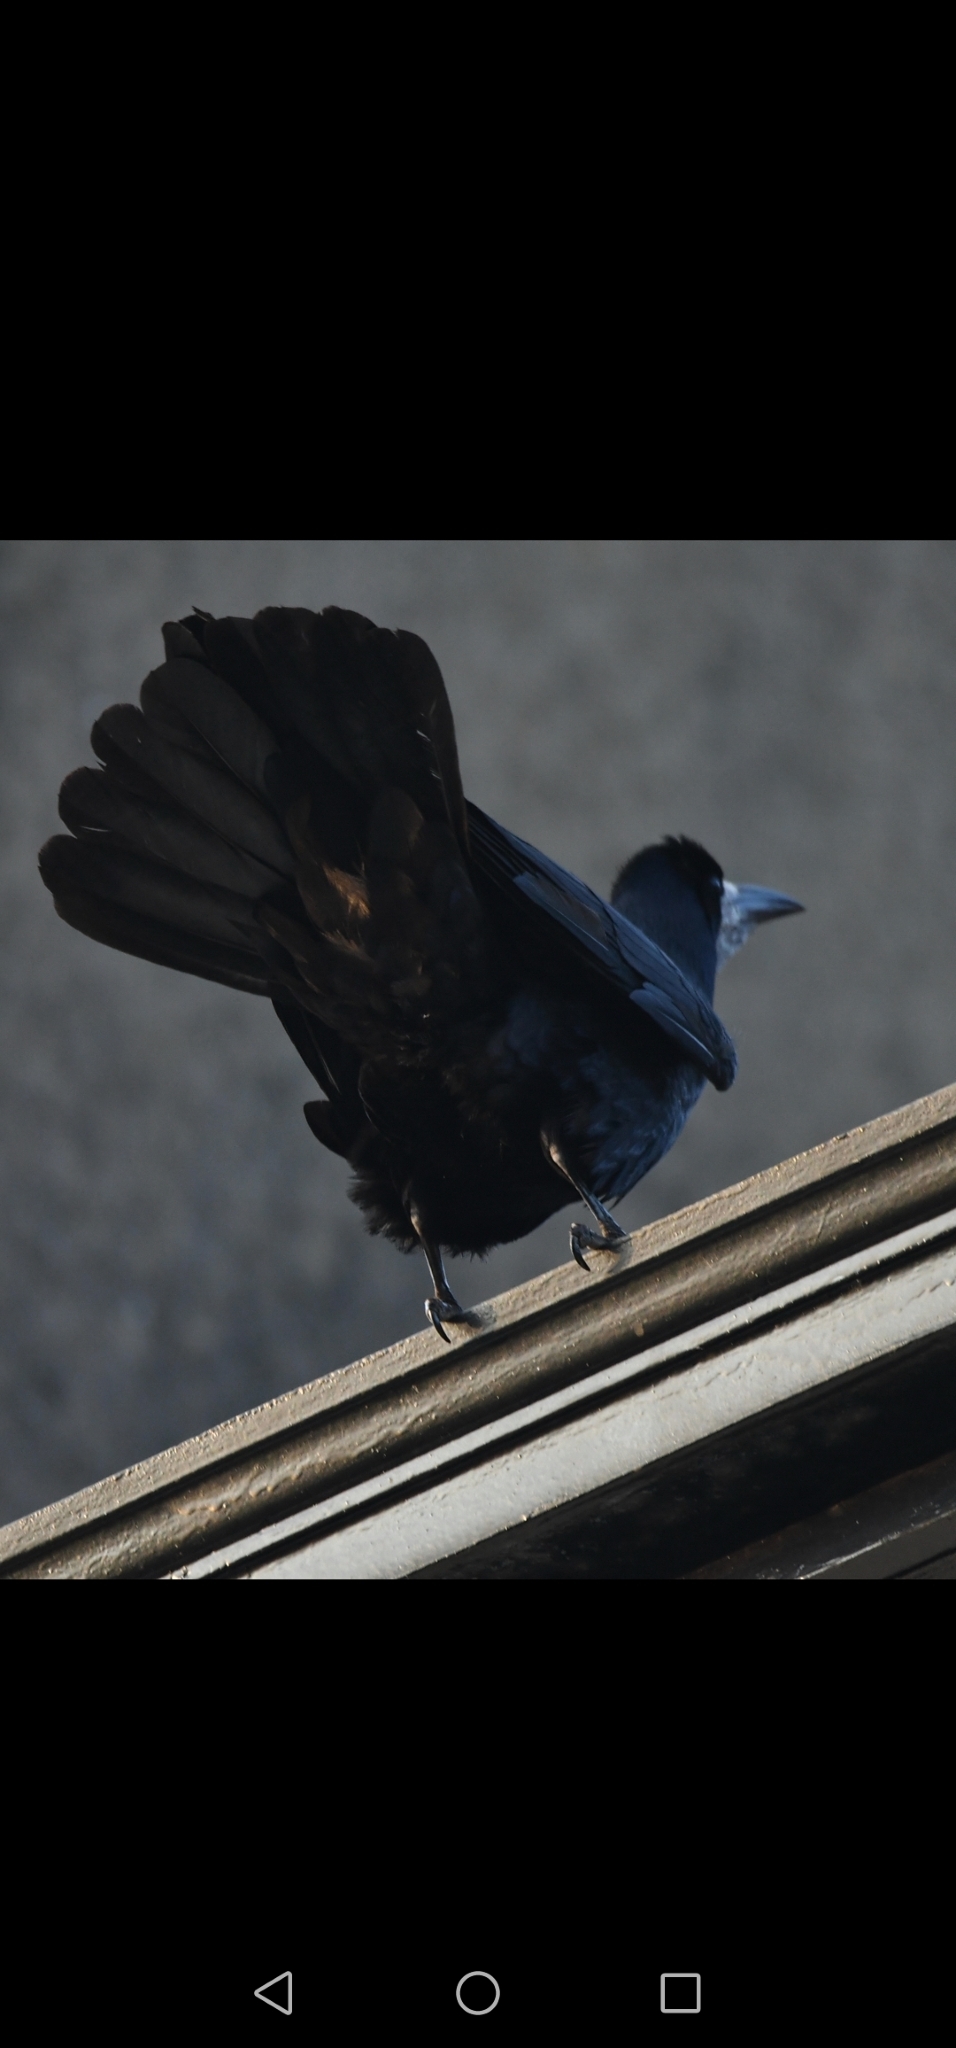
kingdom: Animalia
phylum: Chordata
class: Aves
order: Passeriformes
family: Corvidae
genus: Corvus
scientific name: Corvus frugilegus
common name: Rook
